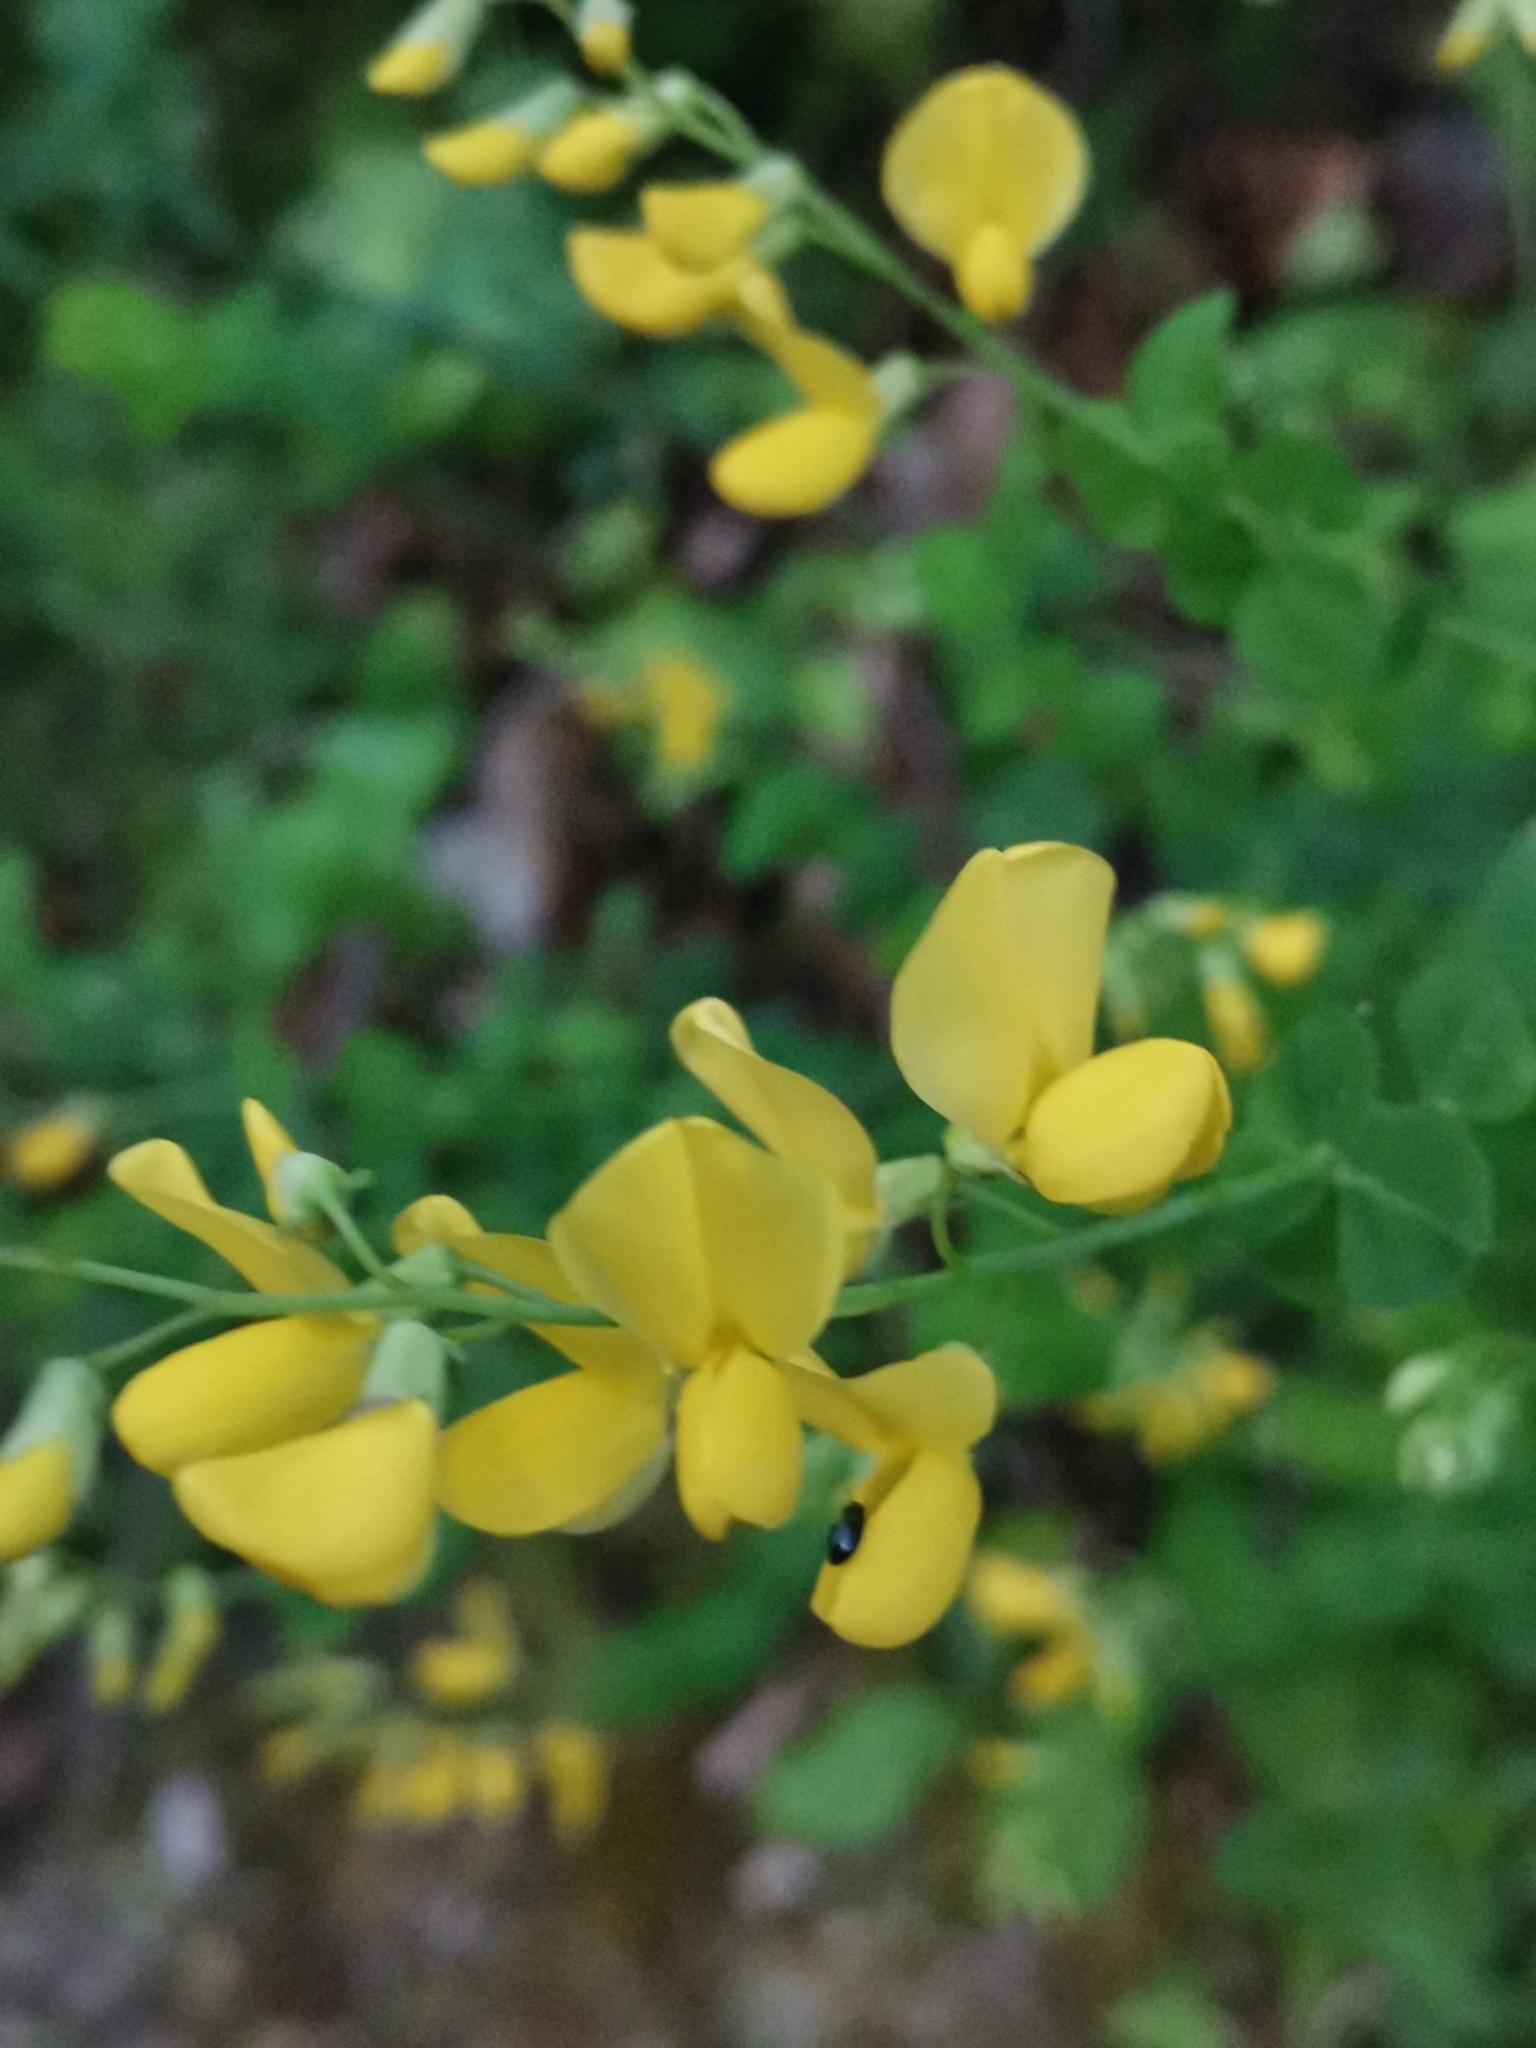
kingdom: Plantae
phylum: Tracheophyta
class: Magnoliopsida
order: Fabales
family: Fabaceae
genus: Cytisophyllum
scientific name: Cytisophyllum sessilifolium
